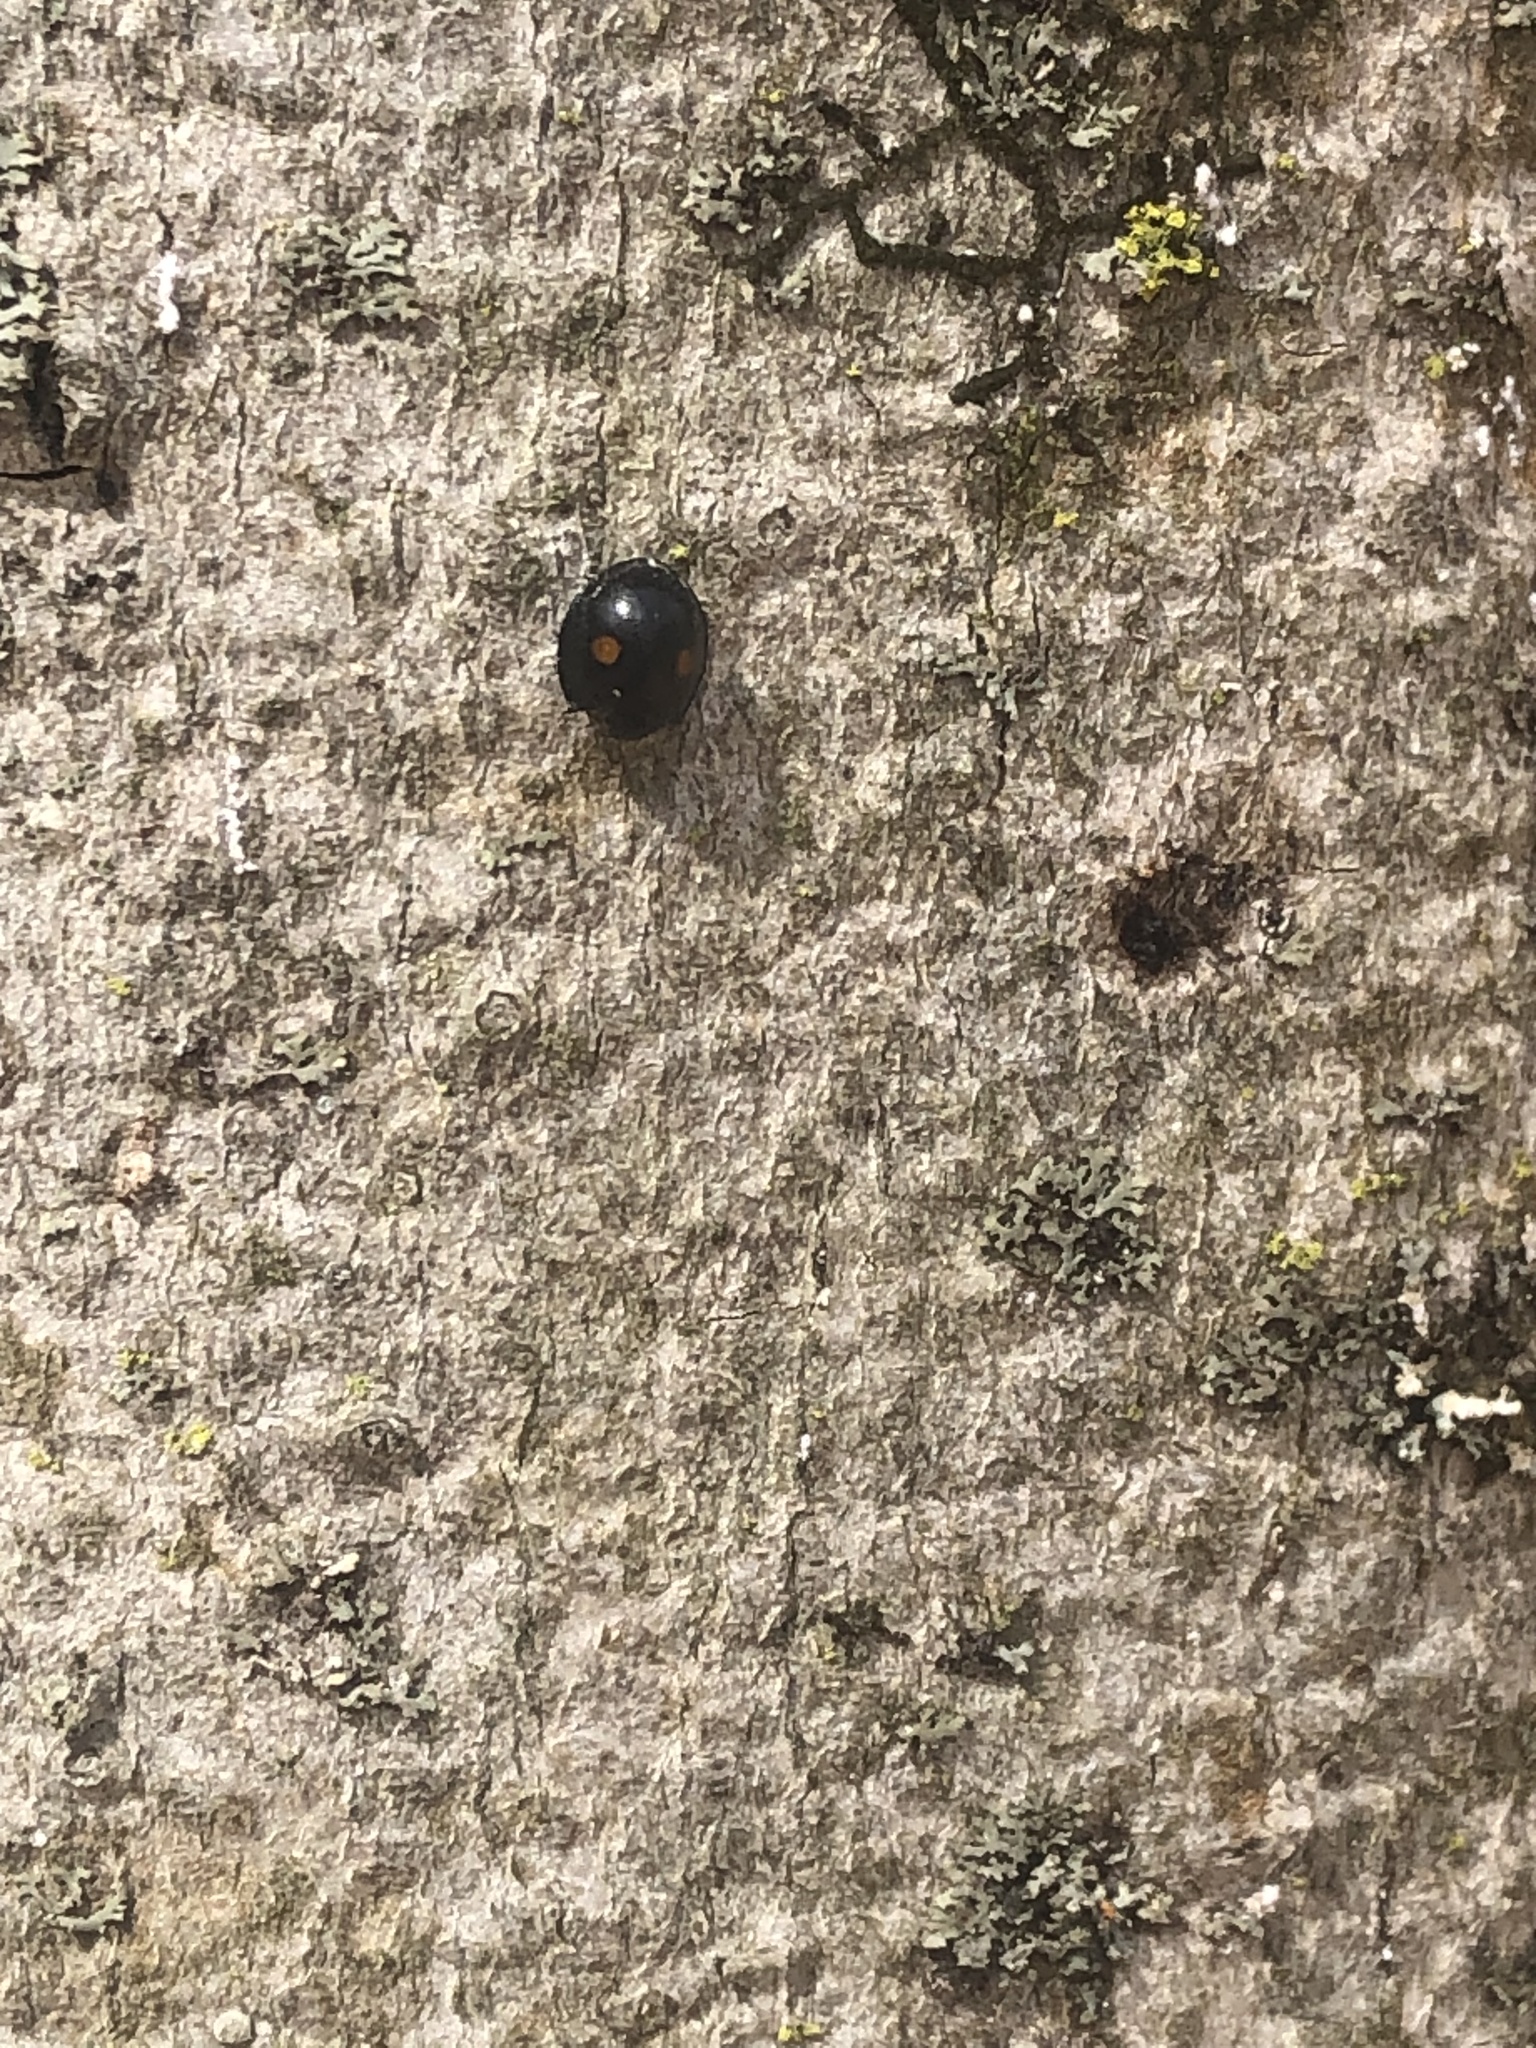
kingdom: Animalia
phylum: Arthropoda
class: Insecta
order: Coleoptera
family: Coccinellidae
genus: Chilocorus
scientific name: Chilocorus stigma
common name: Twicestabbed lady beetle
